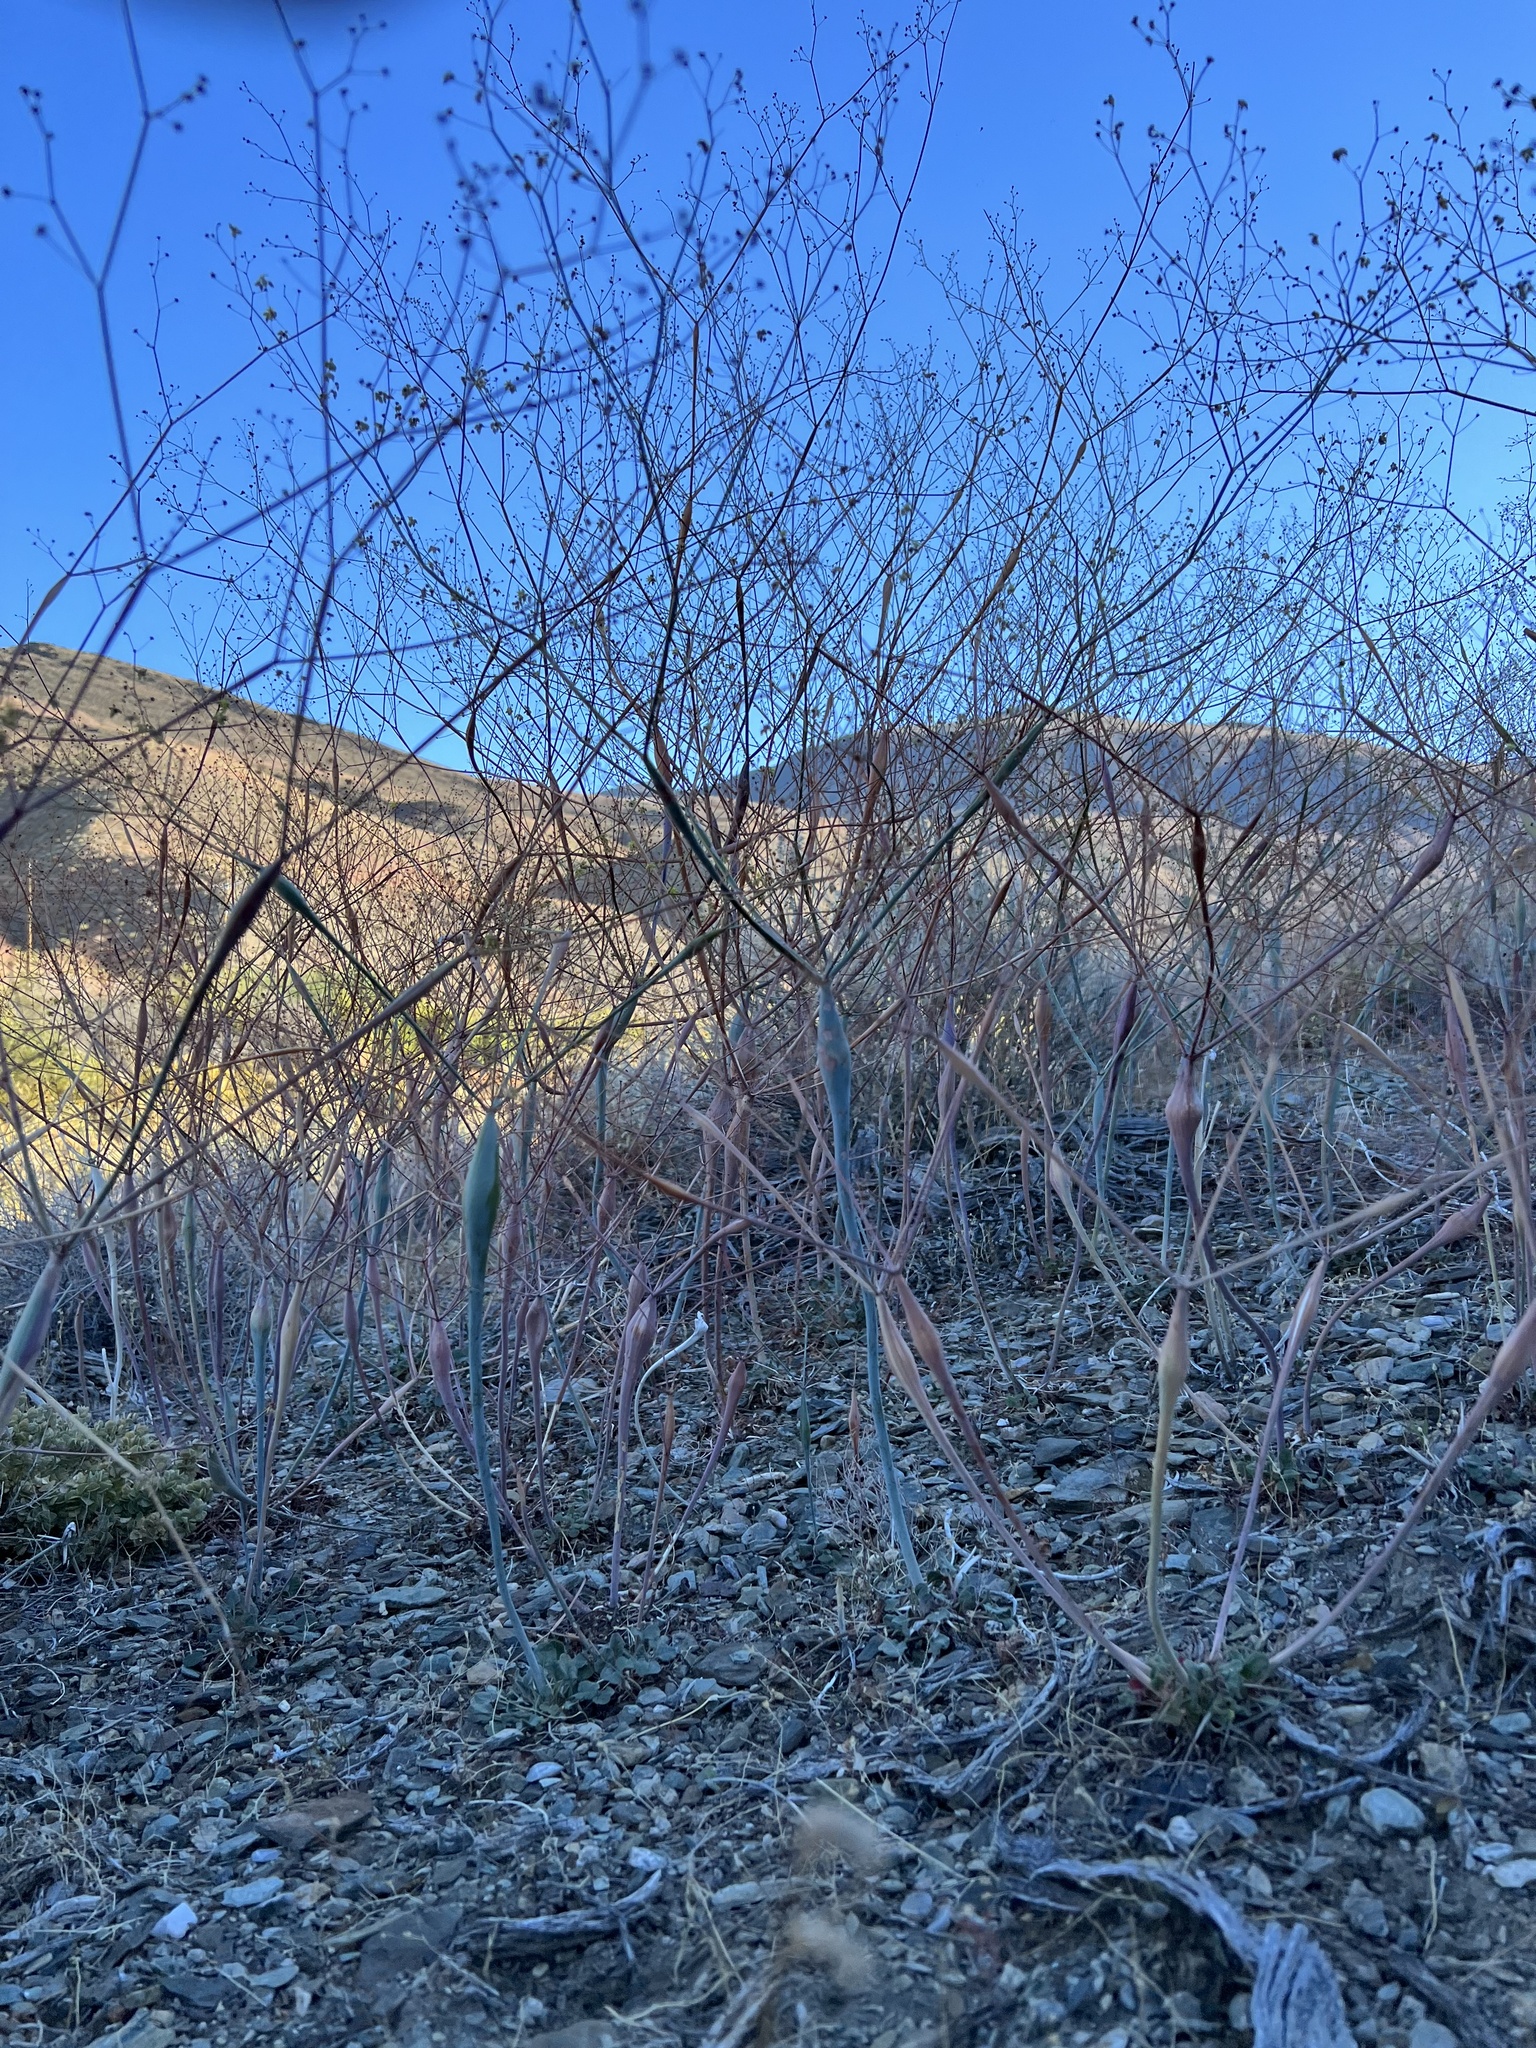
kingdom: Plantae
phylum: Tracheophyta
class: Magnoliopsida
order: Caryophyllales
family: Polygonaceae
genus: Eriogonum
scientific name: Eriogonum inflatum
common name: Desert trumpet
